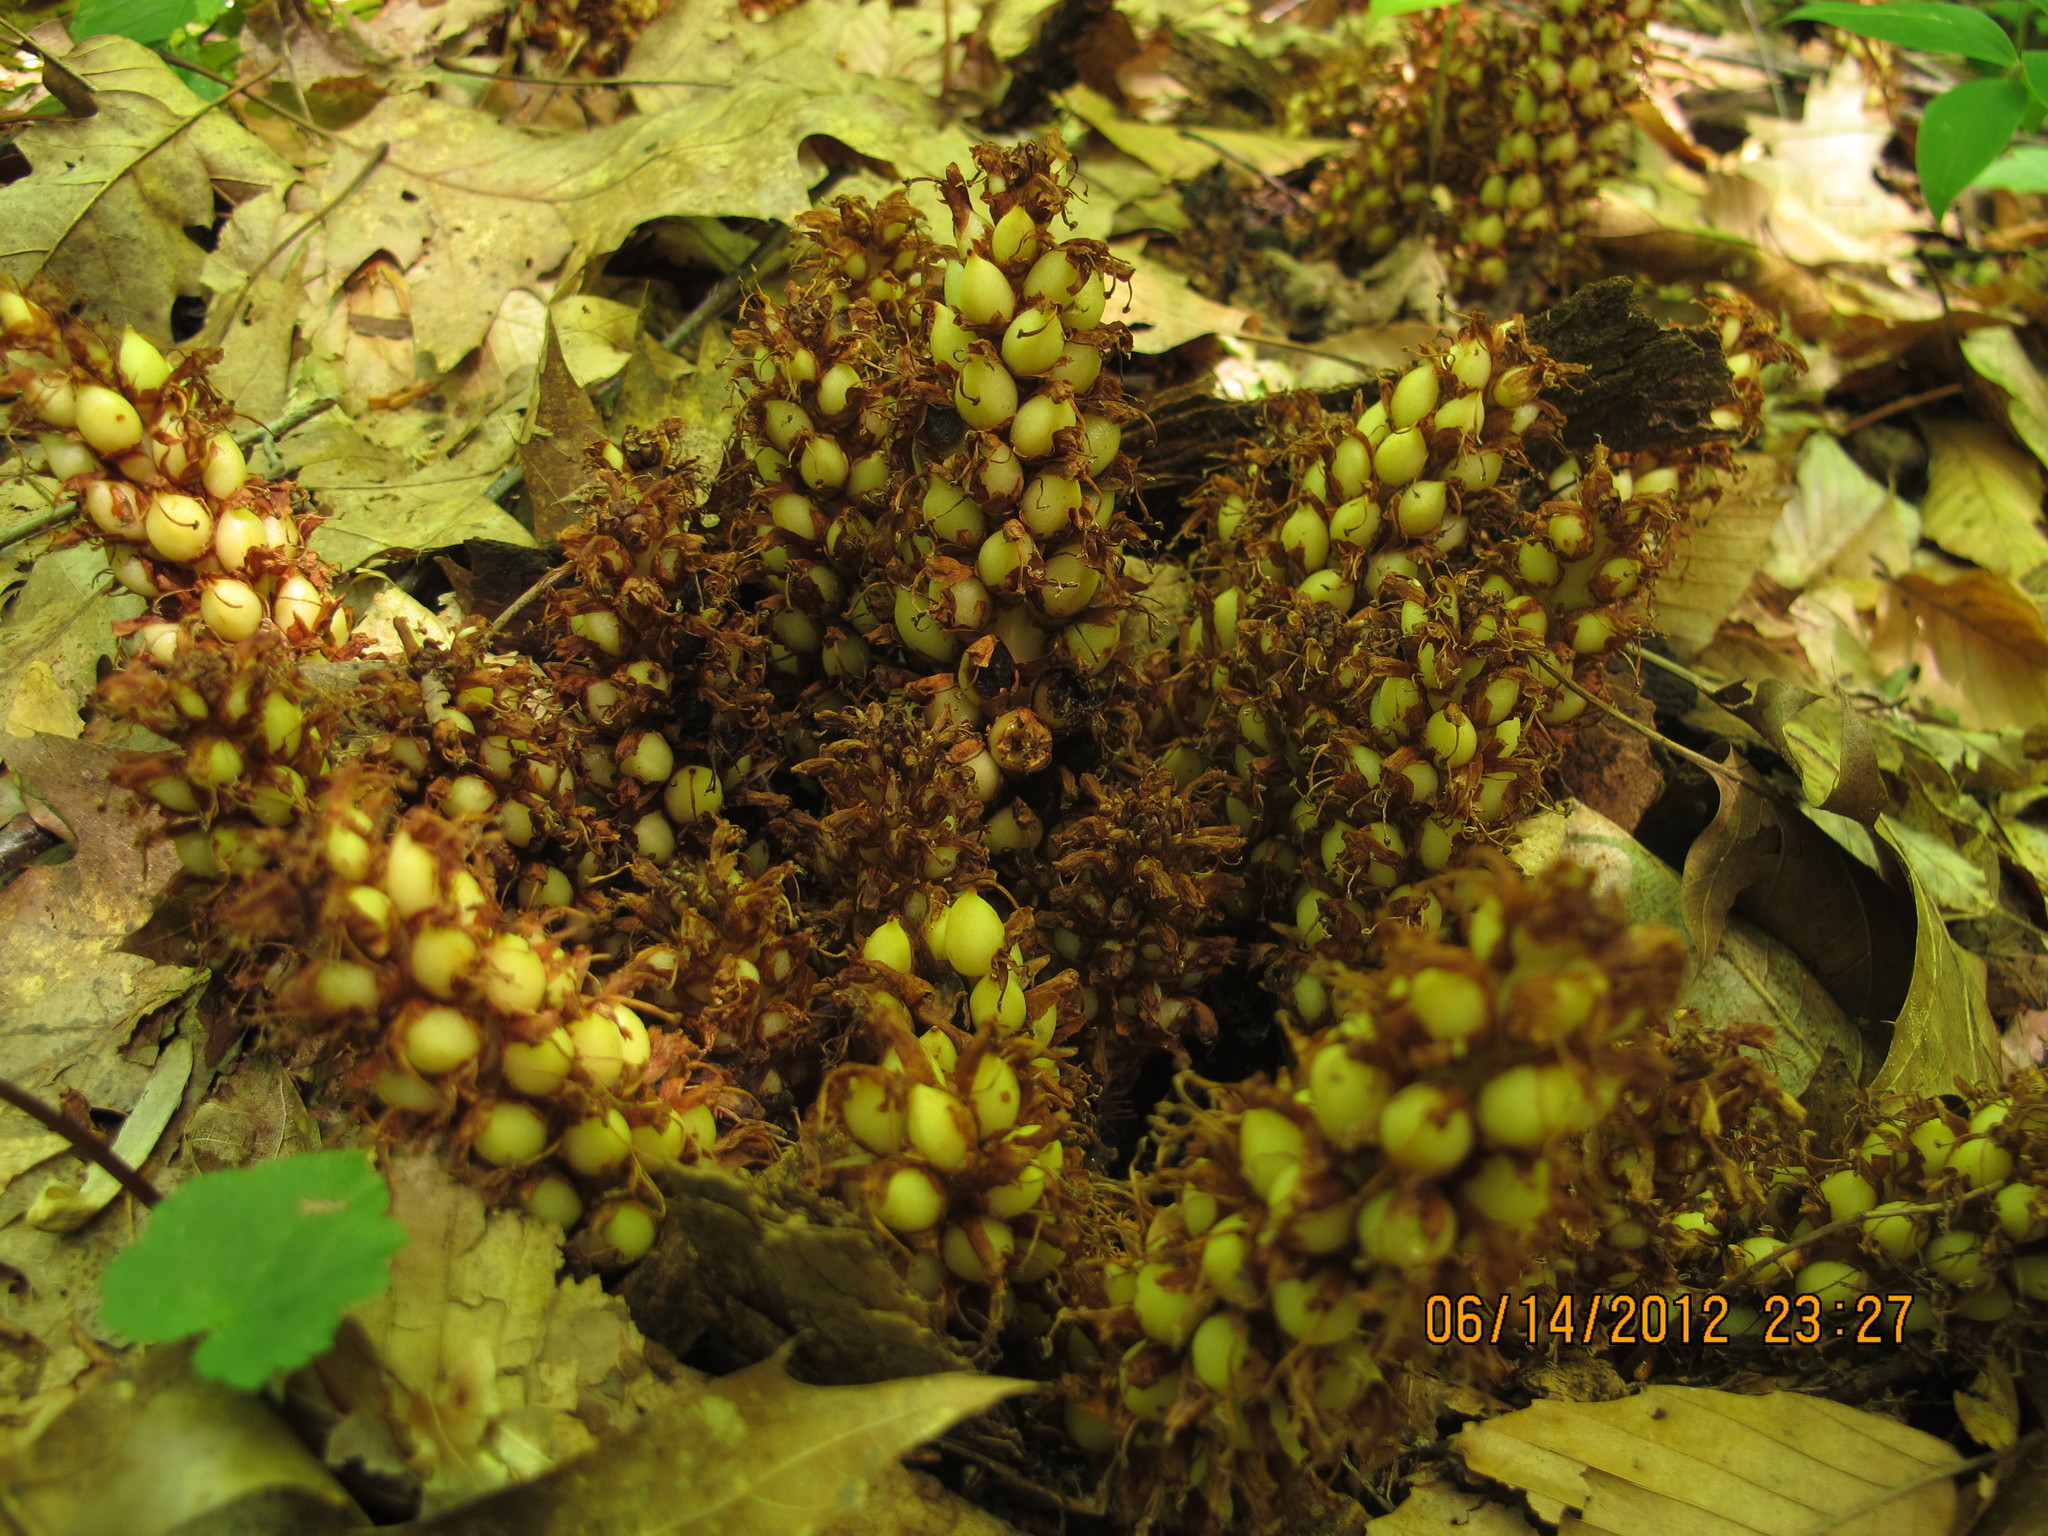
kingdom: Plantae
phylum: Tracheophyta
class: Magnoliopsida
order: Lamiales
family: Orobanchaceae
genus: Conopholis
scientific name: Conopholis americana
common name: American cancer-root
